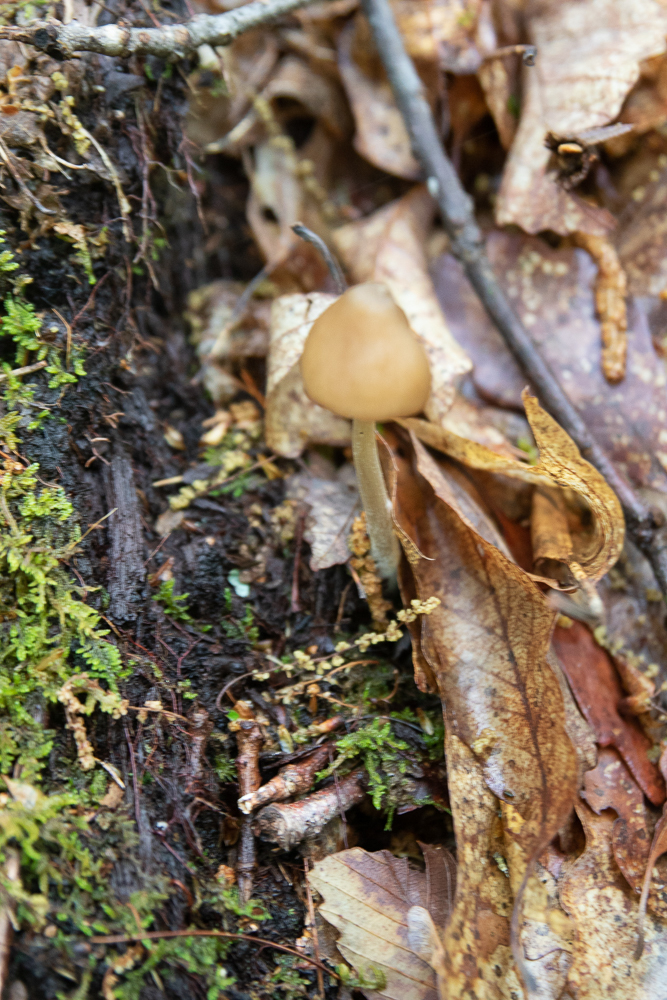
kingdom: Fungi
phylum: Basidiomycota
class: Agaricomycetes
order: Agaricales
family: Entolomataceae
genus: Entoloma
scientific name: Entoloma vernum
